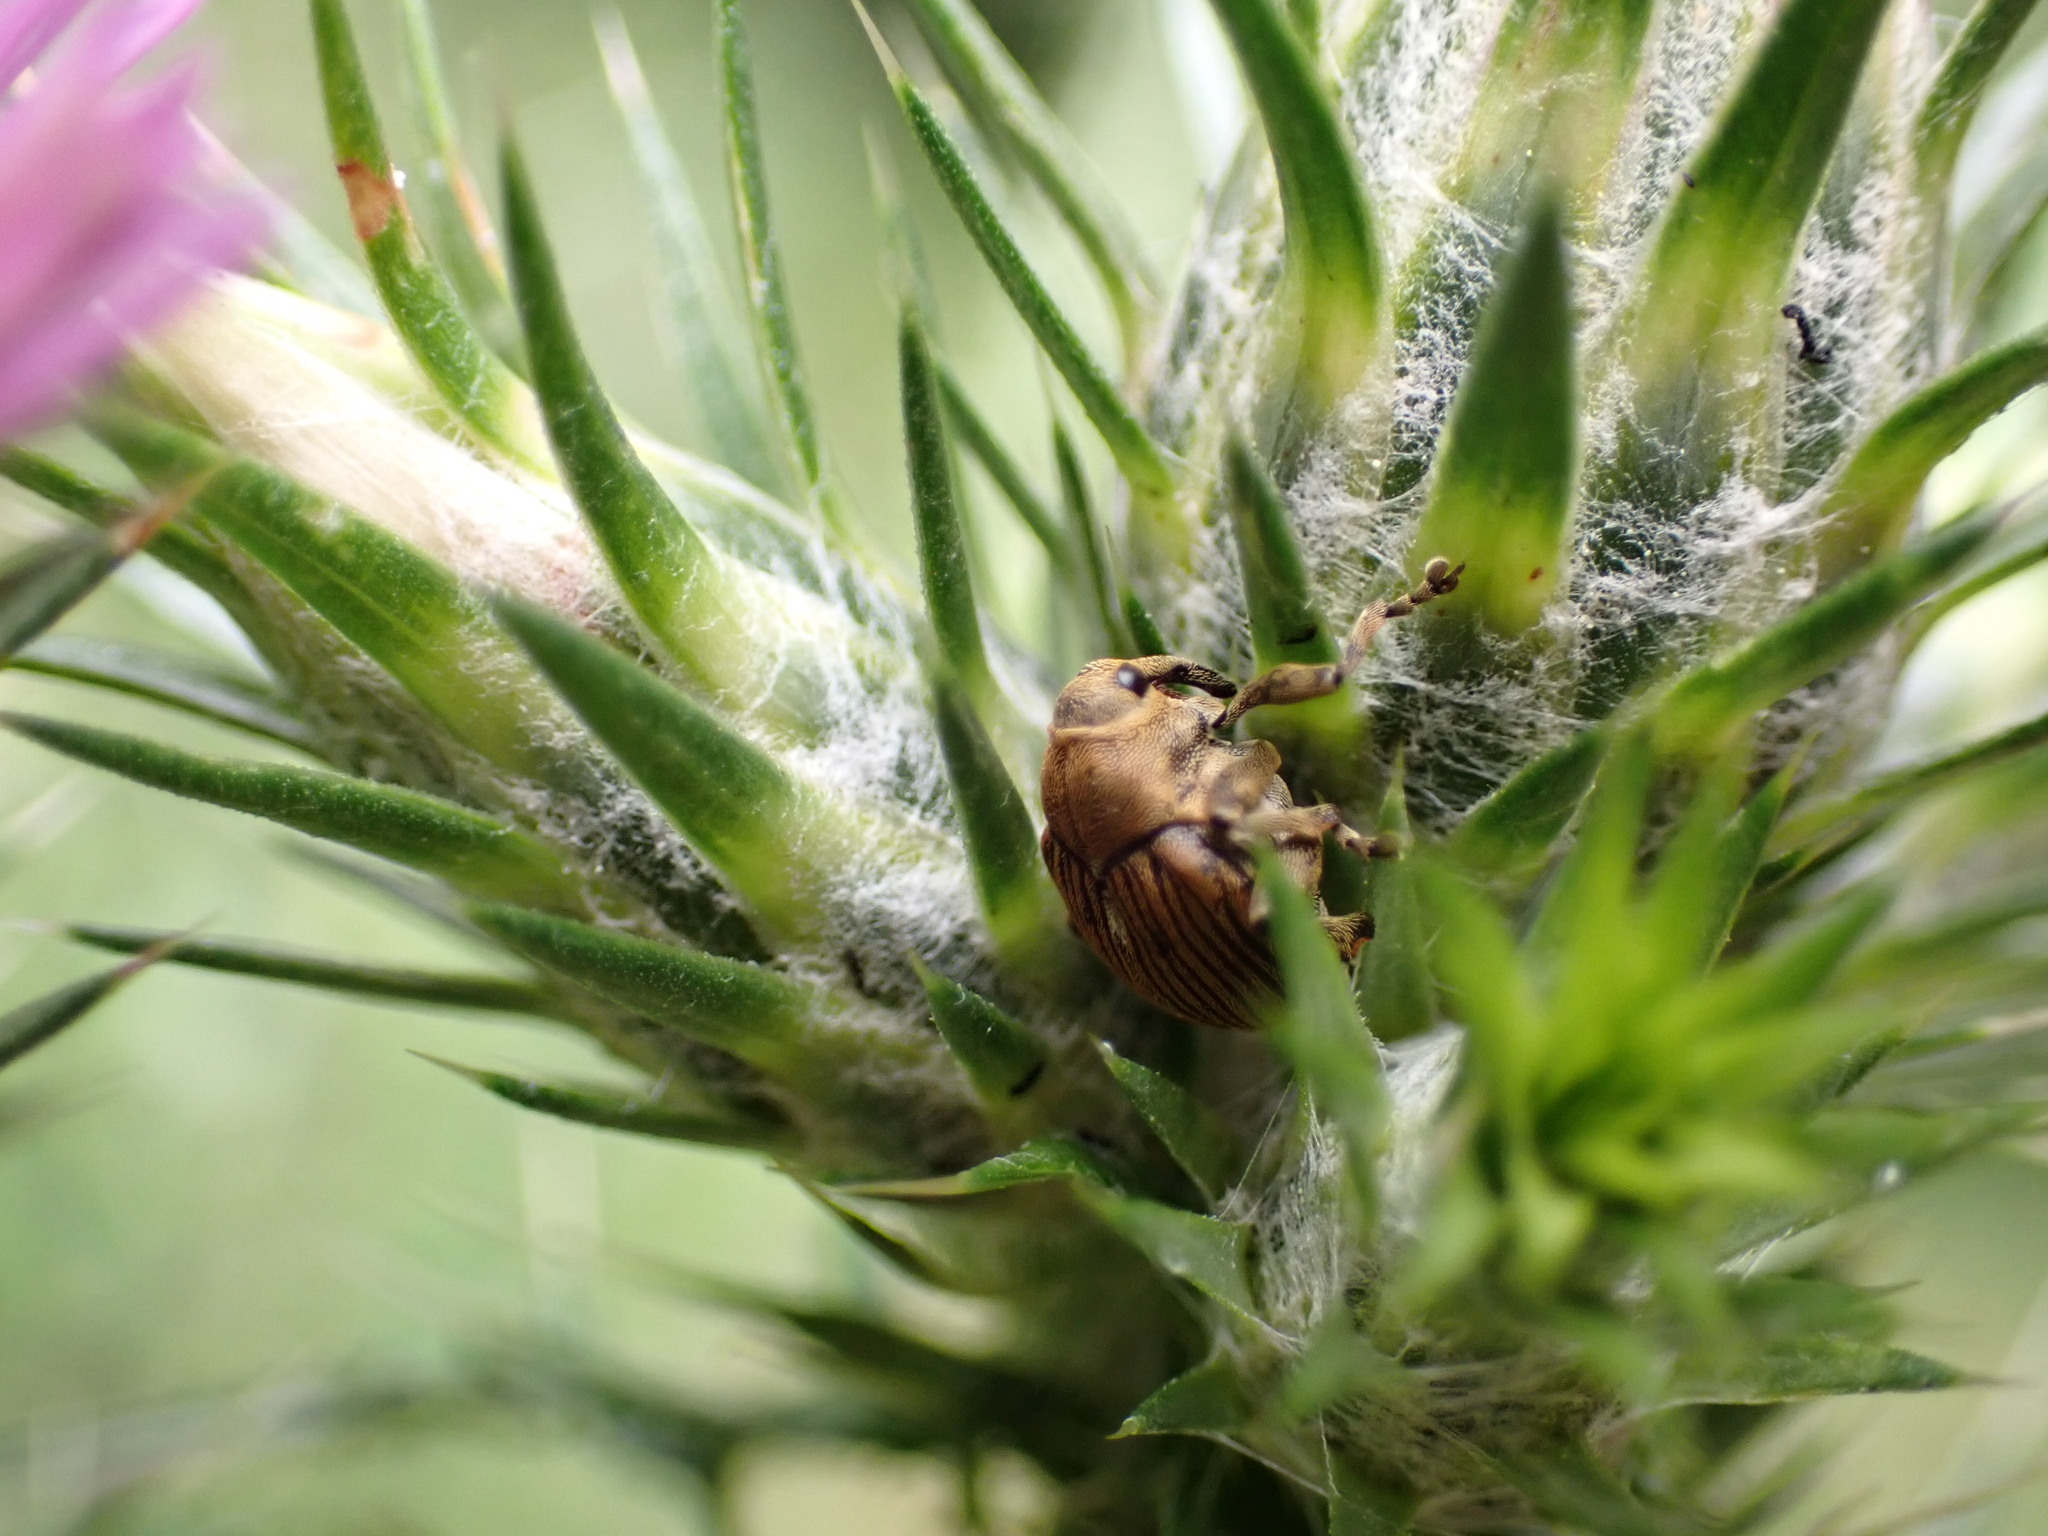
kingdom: Animalia
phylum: Arthropoda
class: Insecta
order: Coleoptera
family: Curculionidae
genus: Mononychus
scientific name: Mononychus punctumalbum
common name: Iris weevil
